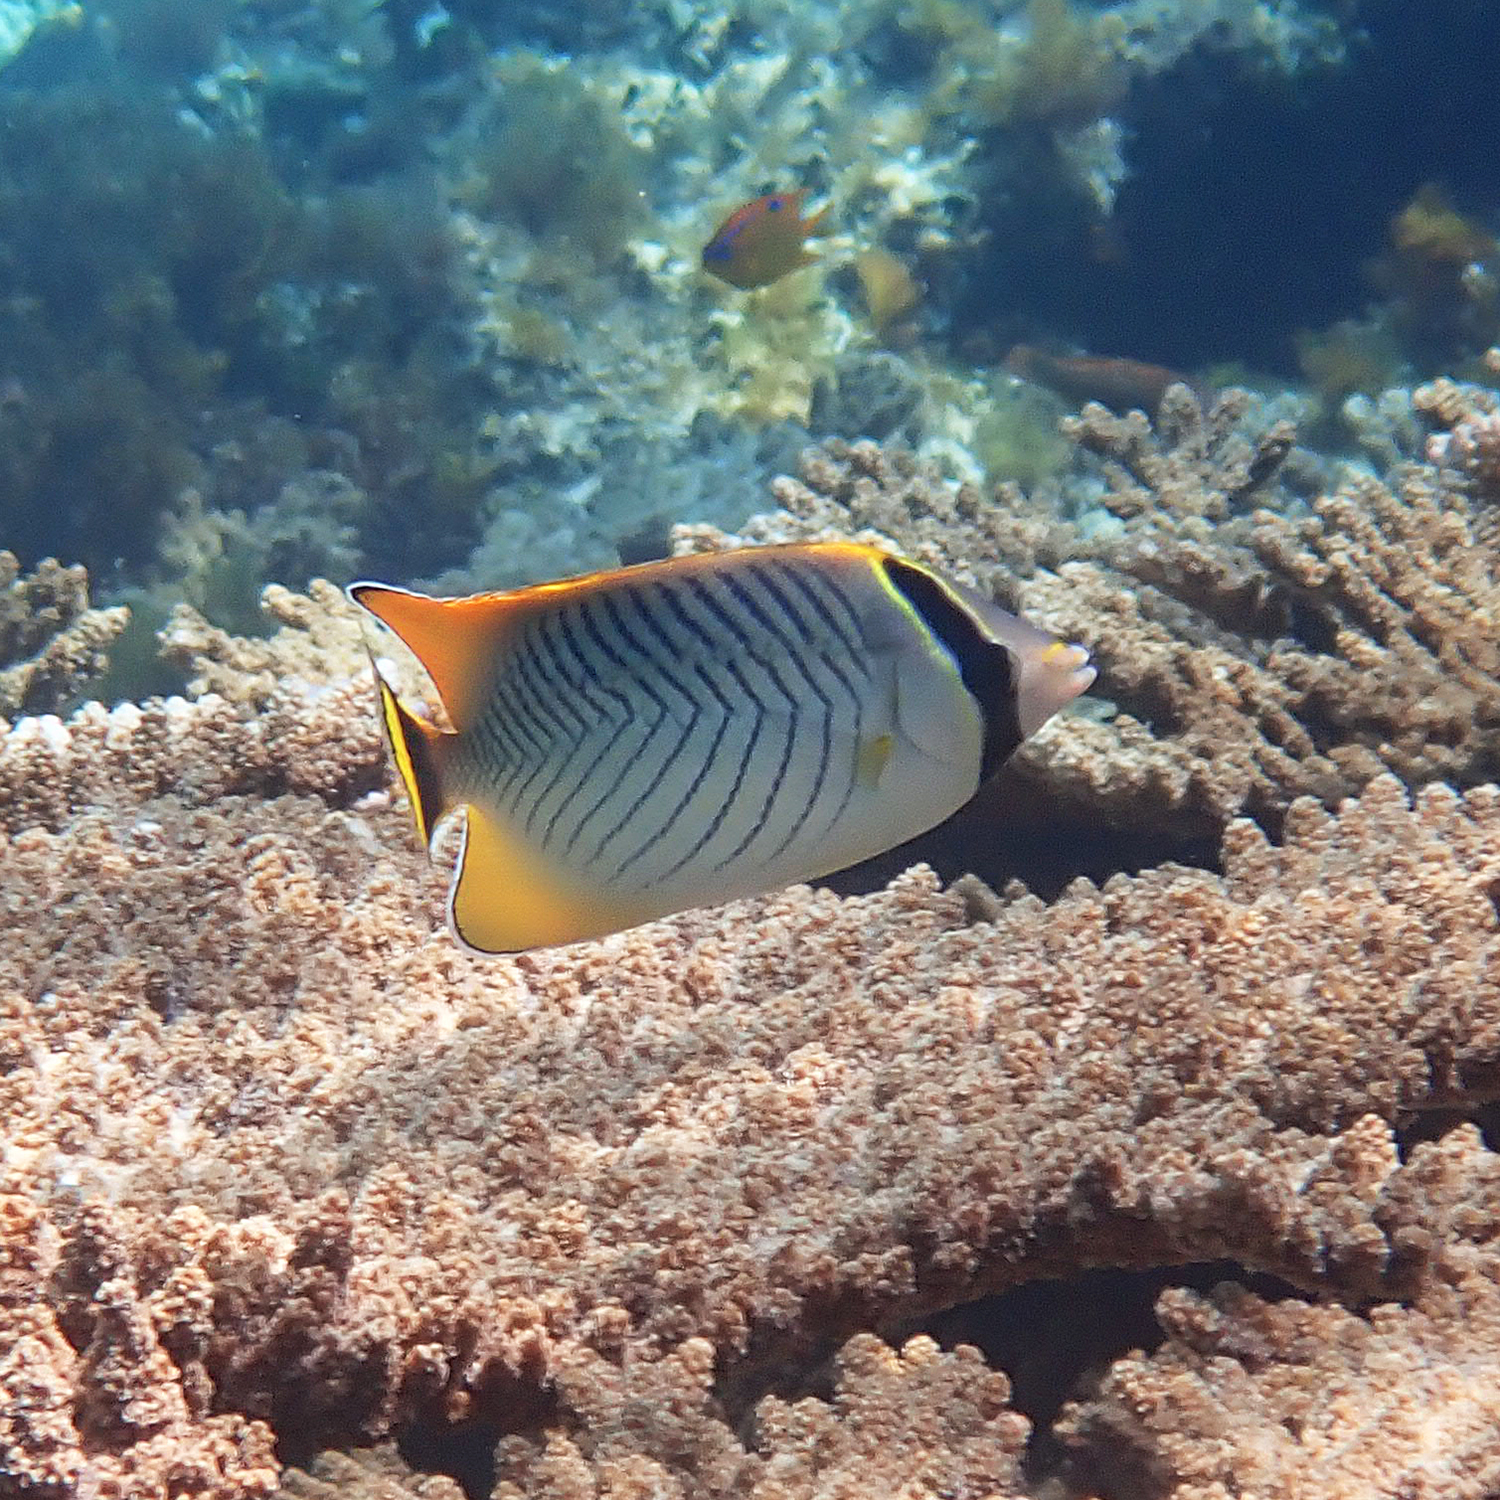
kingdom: Animalia
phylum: Chordata
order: Perciformes
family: Chaetodontidae
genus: Chaetodon
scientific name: Chaetodon trifascialis
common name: Chevroned butterflyfish
